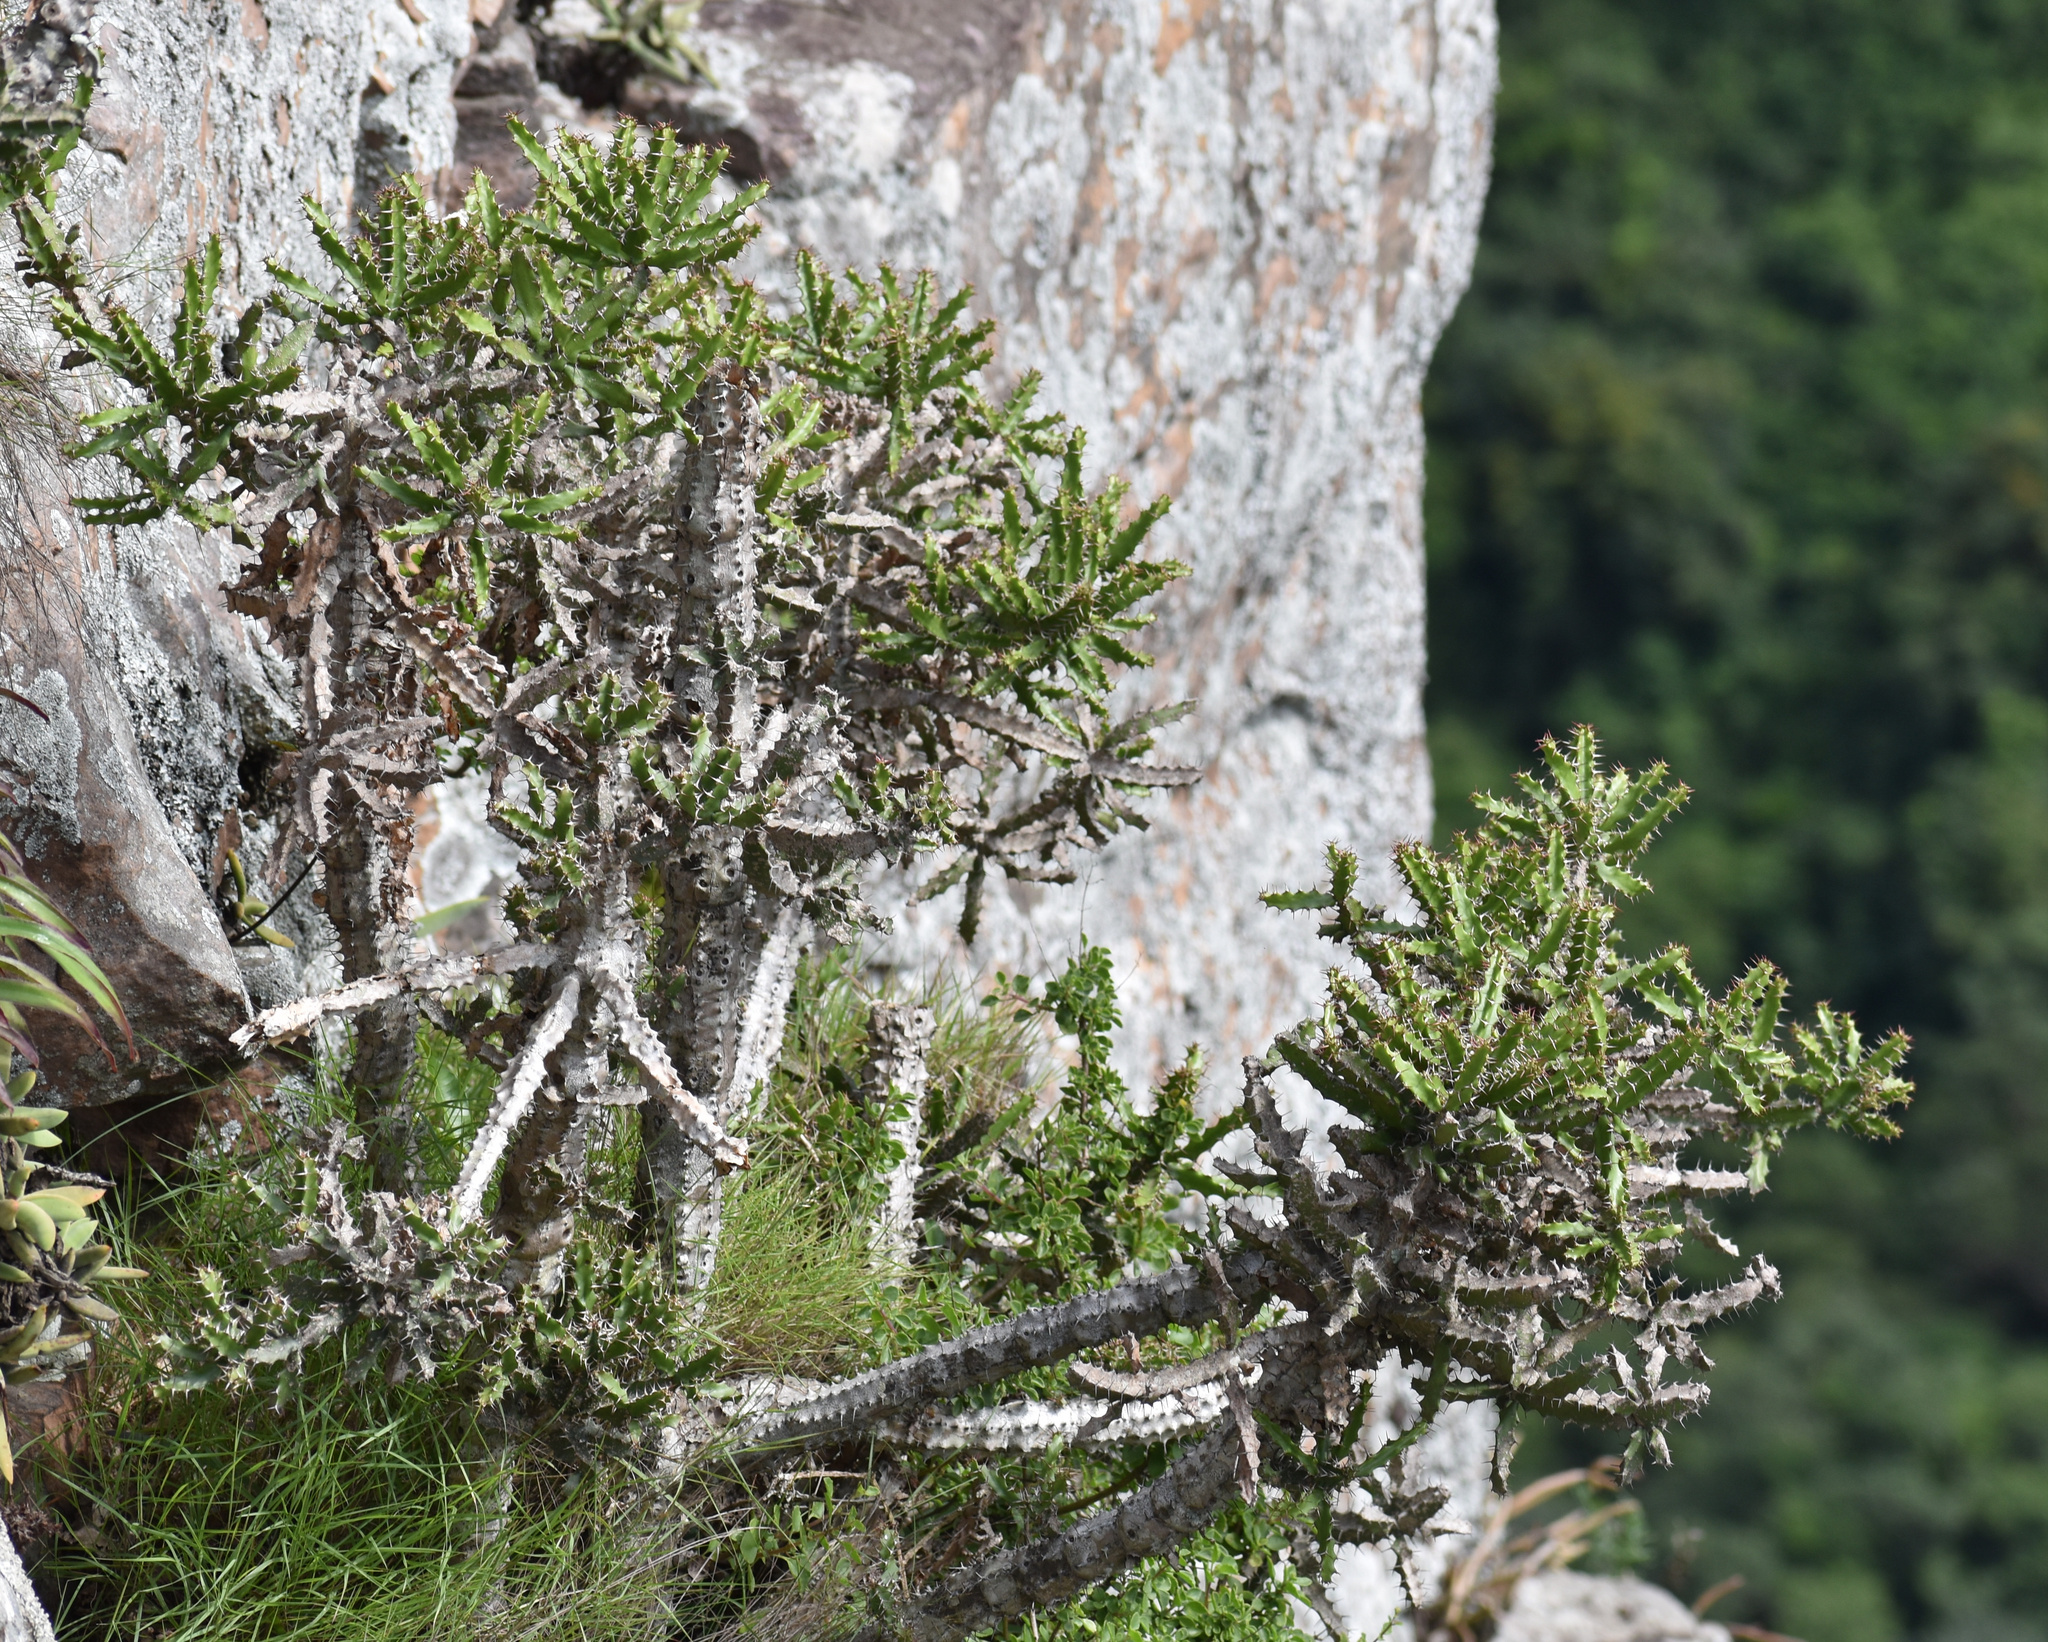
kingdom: Plantae
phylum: Tracheophyta
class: Magnoliopsida
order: Malpighiales
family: Euphorbiaceae
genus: Euphorbia
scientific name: Euphorbia grandidens
